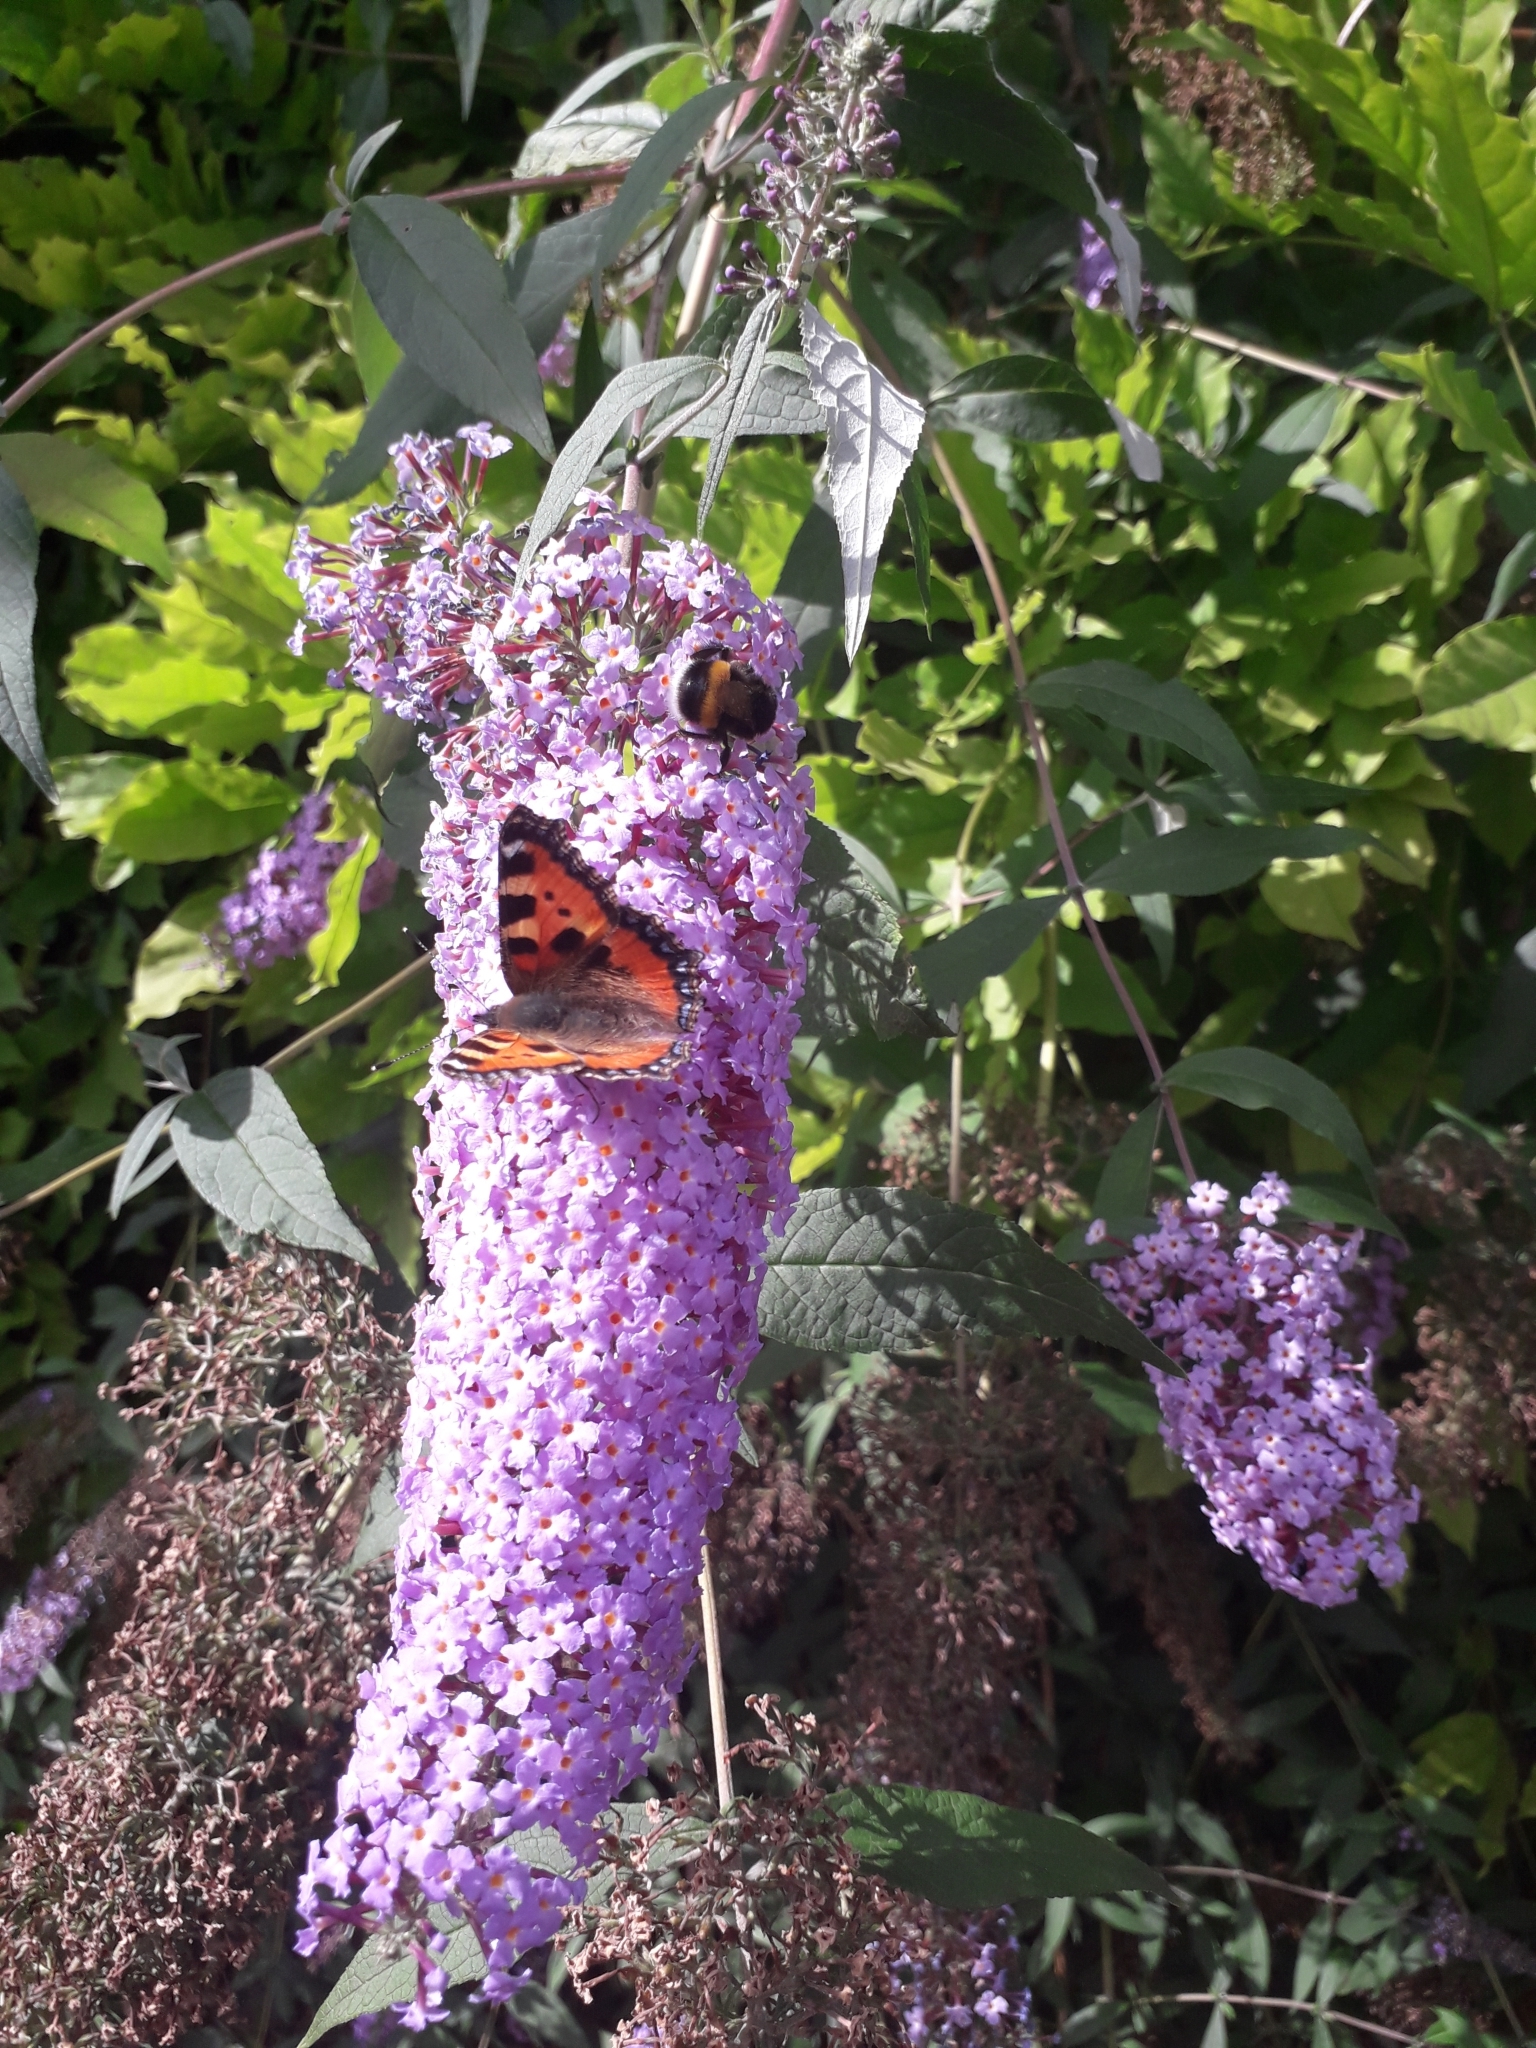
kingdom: Animalia
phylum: Arthropoda
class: Insecta
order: Lepidoptera
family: Nymphalidae
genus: Aglais
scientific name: Aglais urticae
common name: Small tortoiseshell
